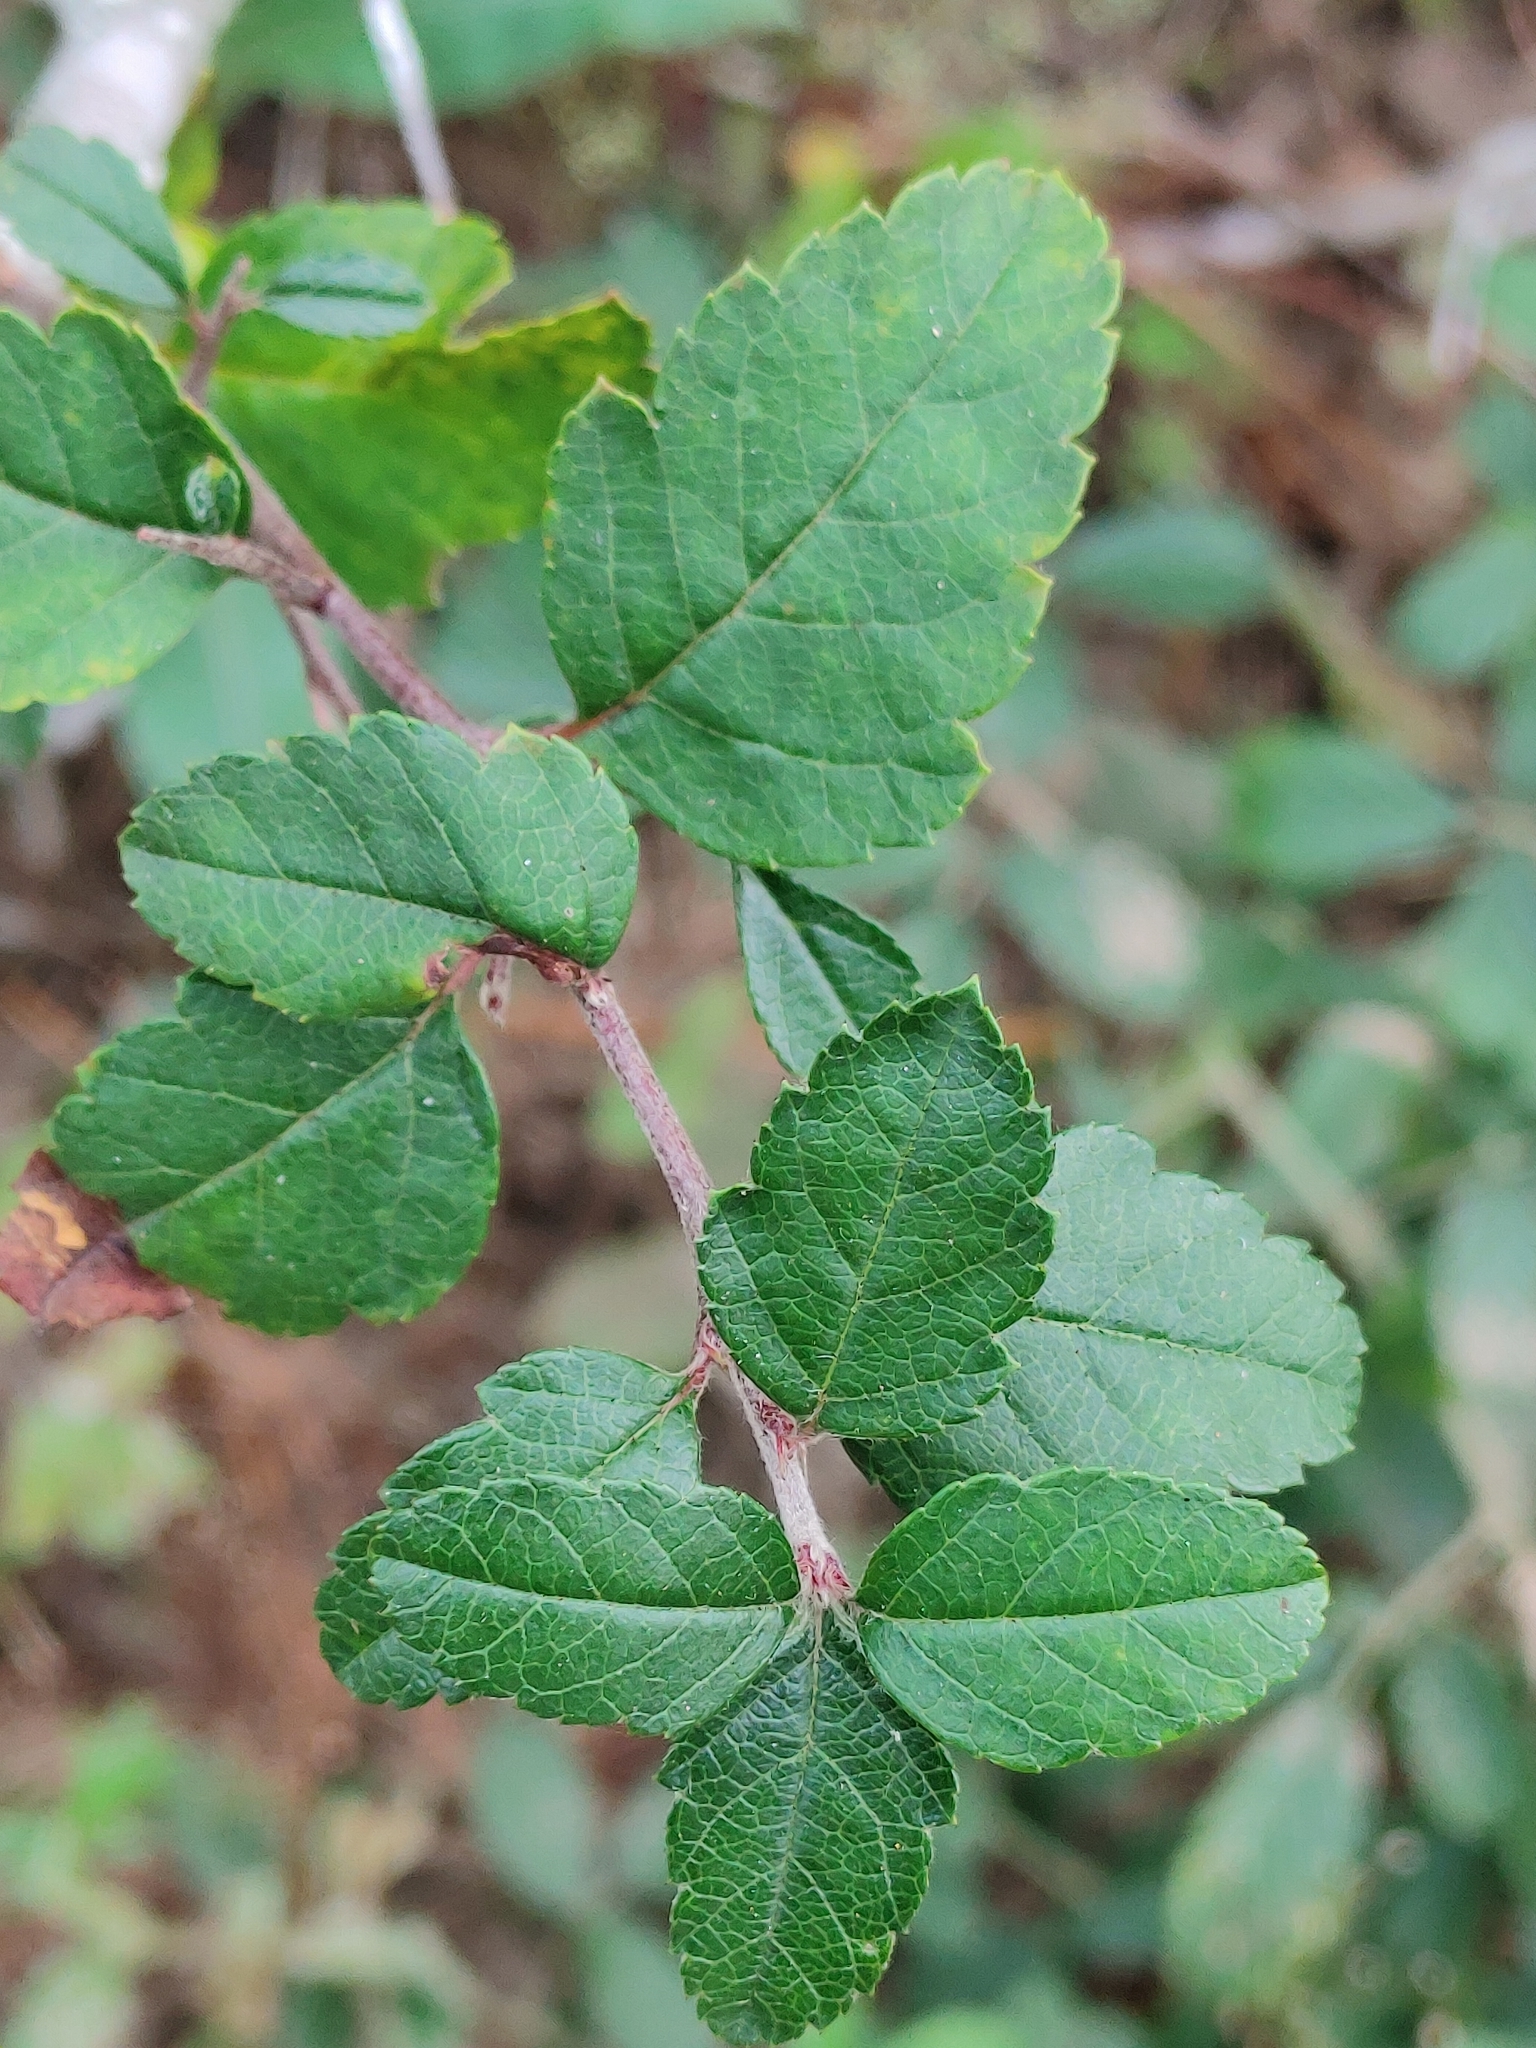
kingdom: Plantae
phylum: Tracheophyta
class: Magnoliopsida
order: Rosales
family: Rosaceae
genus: Malus
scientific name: Malus angustifolia
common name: Southern crab apple
